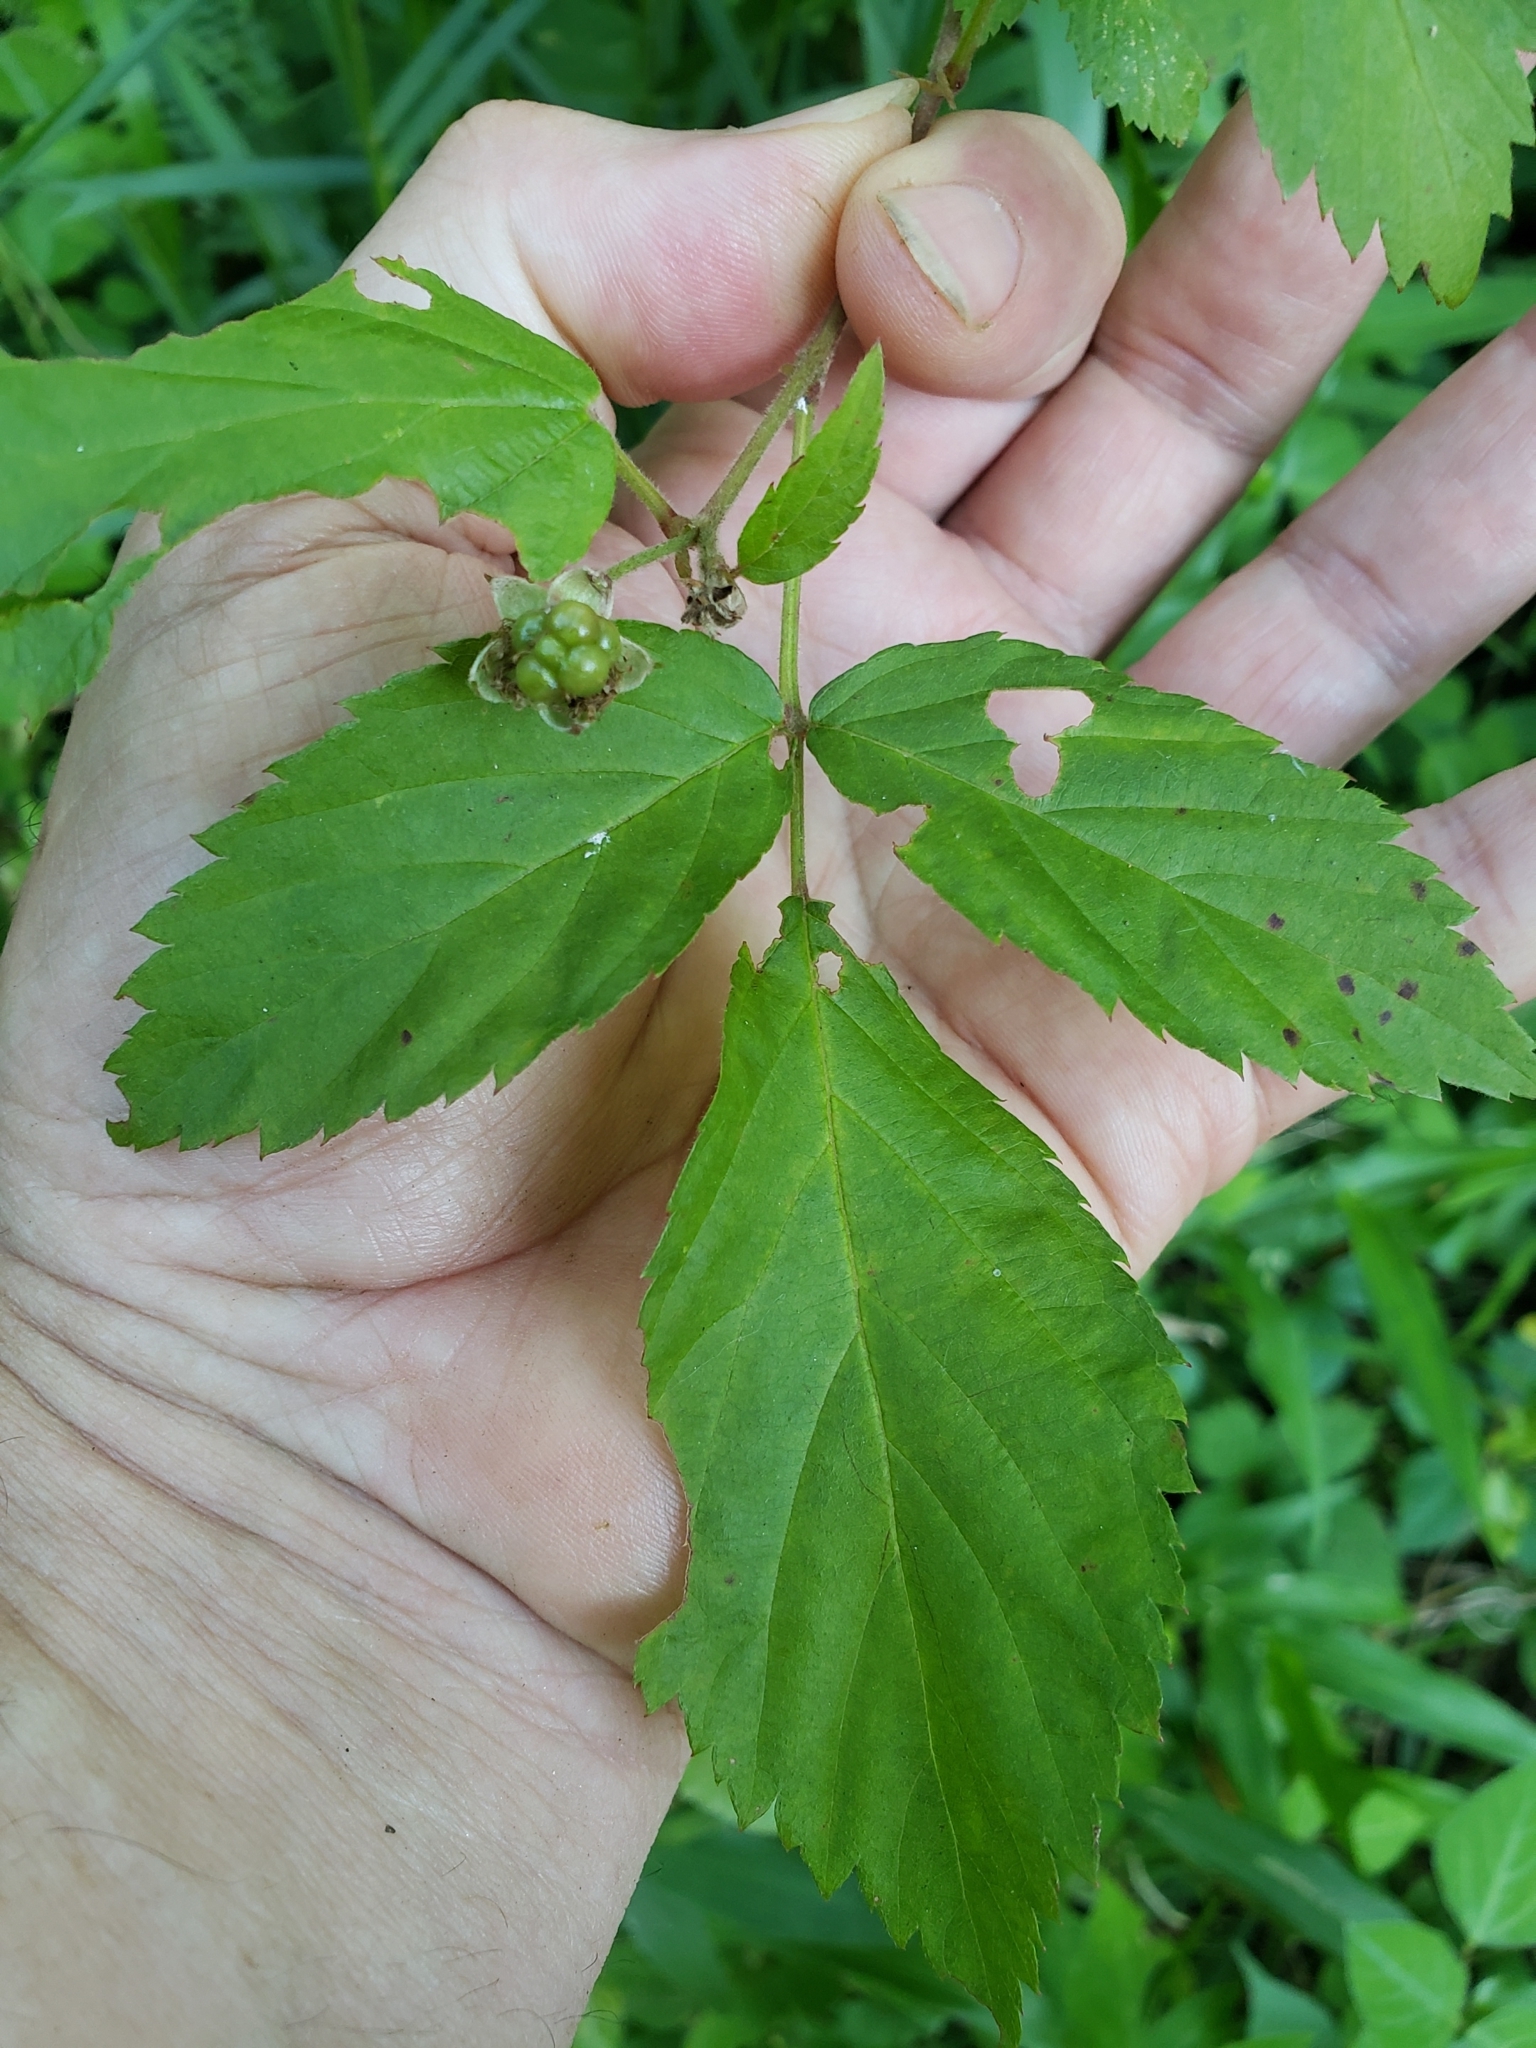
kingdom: Animalia
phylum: Arthropoda
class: Insecta
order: Diptera
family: Cecidomyiidae
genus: Neolasioptera
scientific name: Neolasioptera nodulosa
